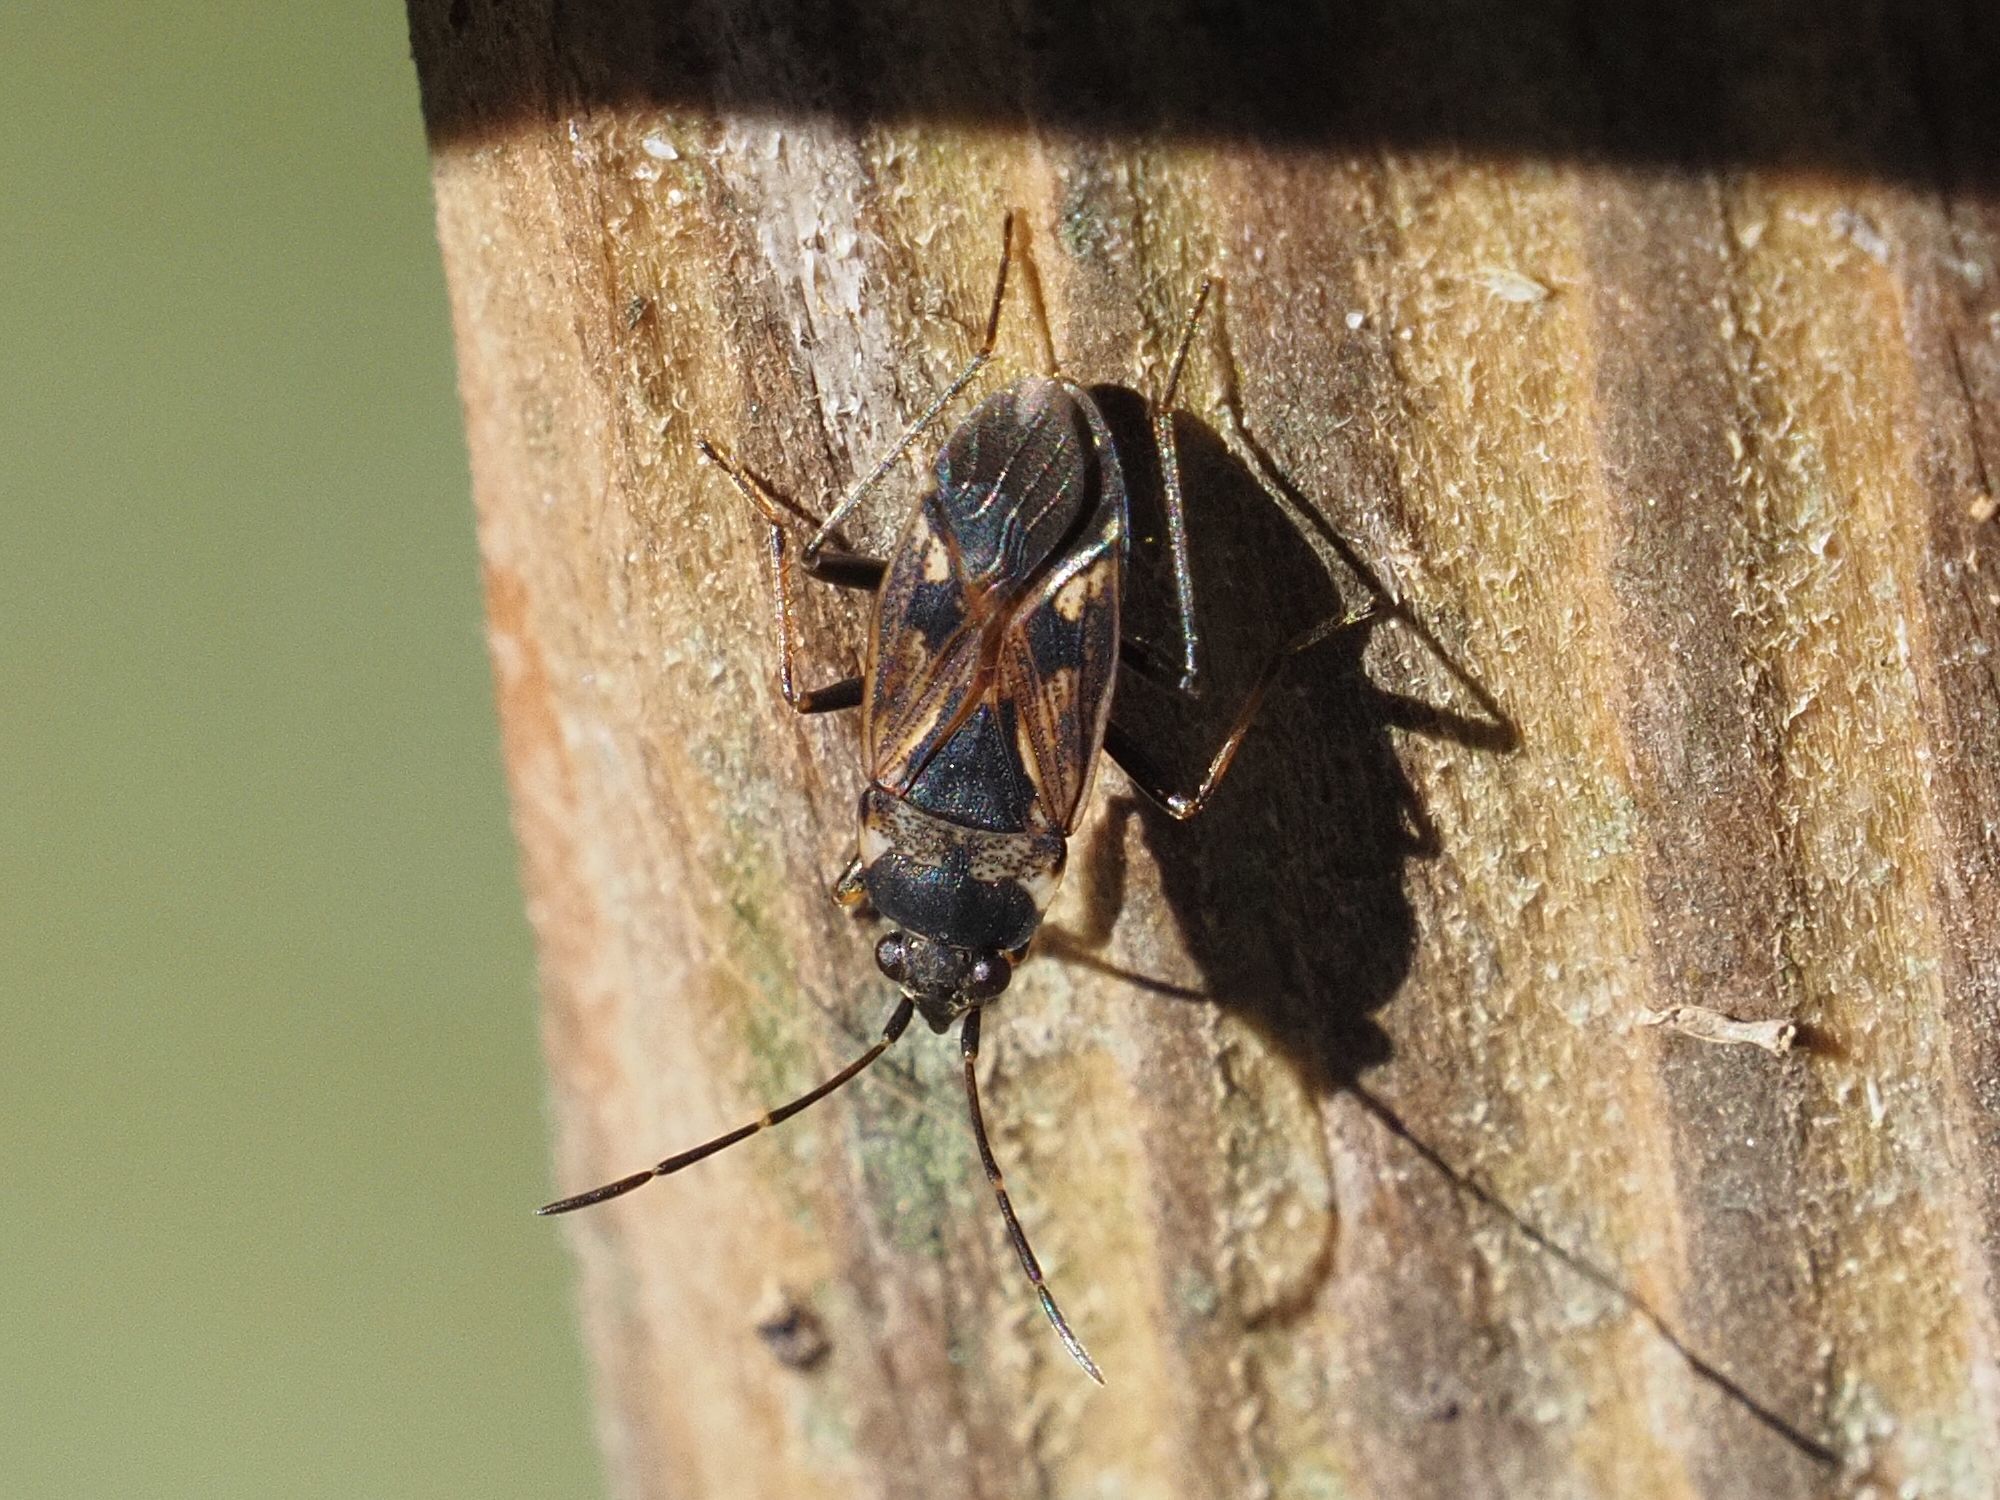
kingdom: Animalia
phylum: Arthropoda
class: Insecta
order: Hemiptera
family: Rhyparochromidae
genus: Rhyparochromus
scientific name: Rhyparochromus vulgaris
